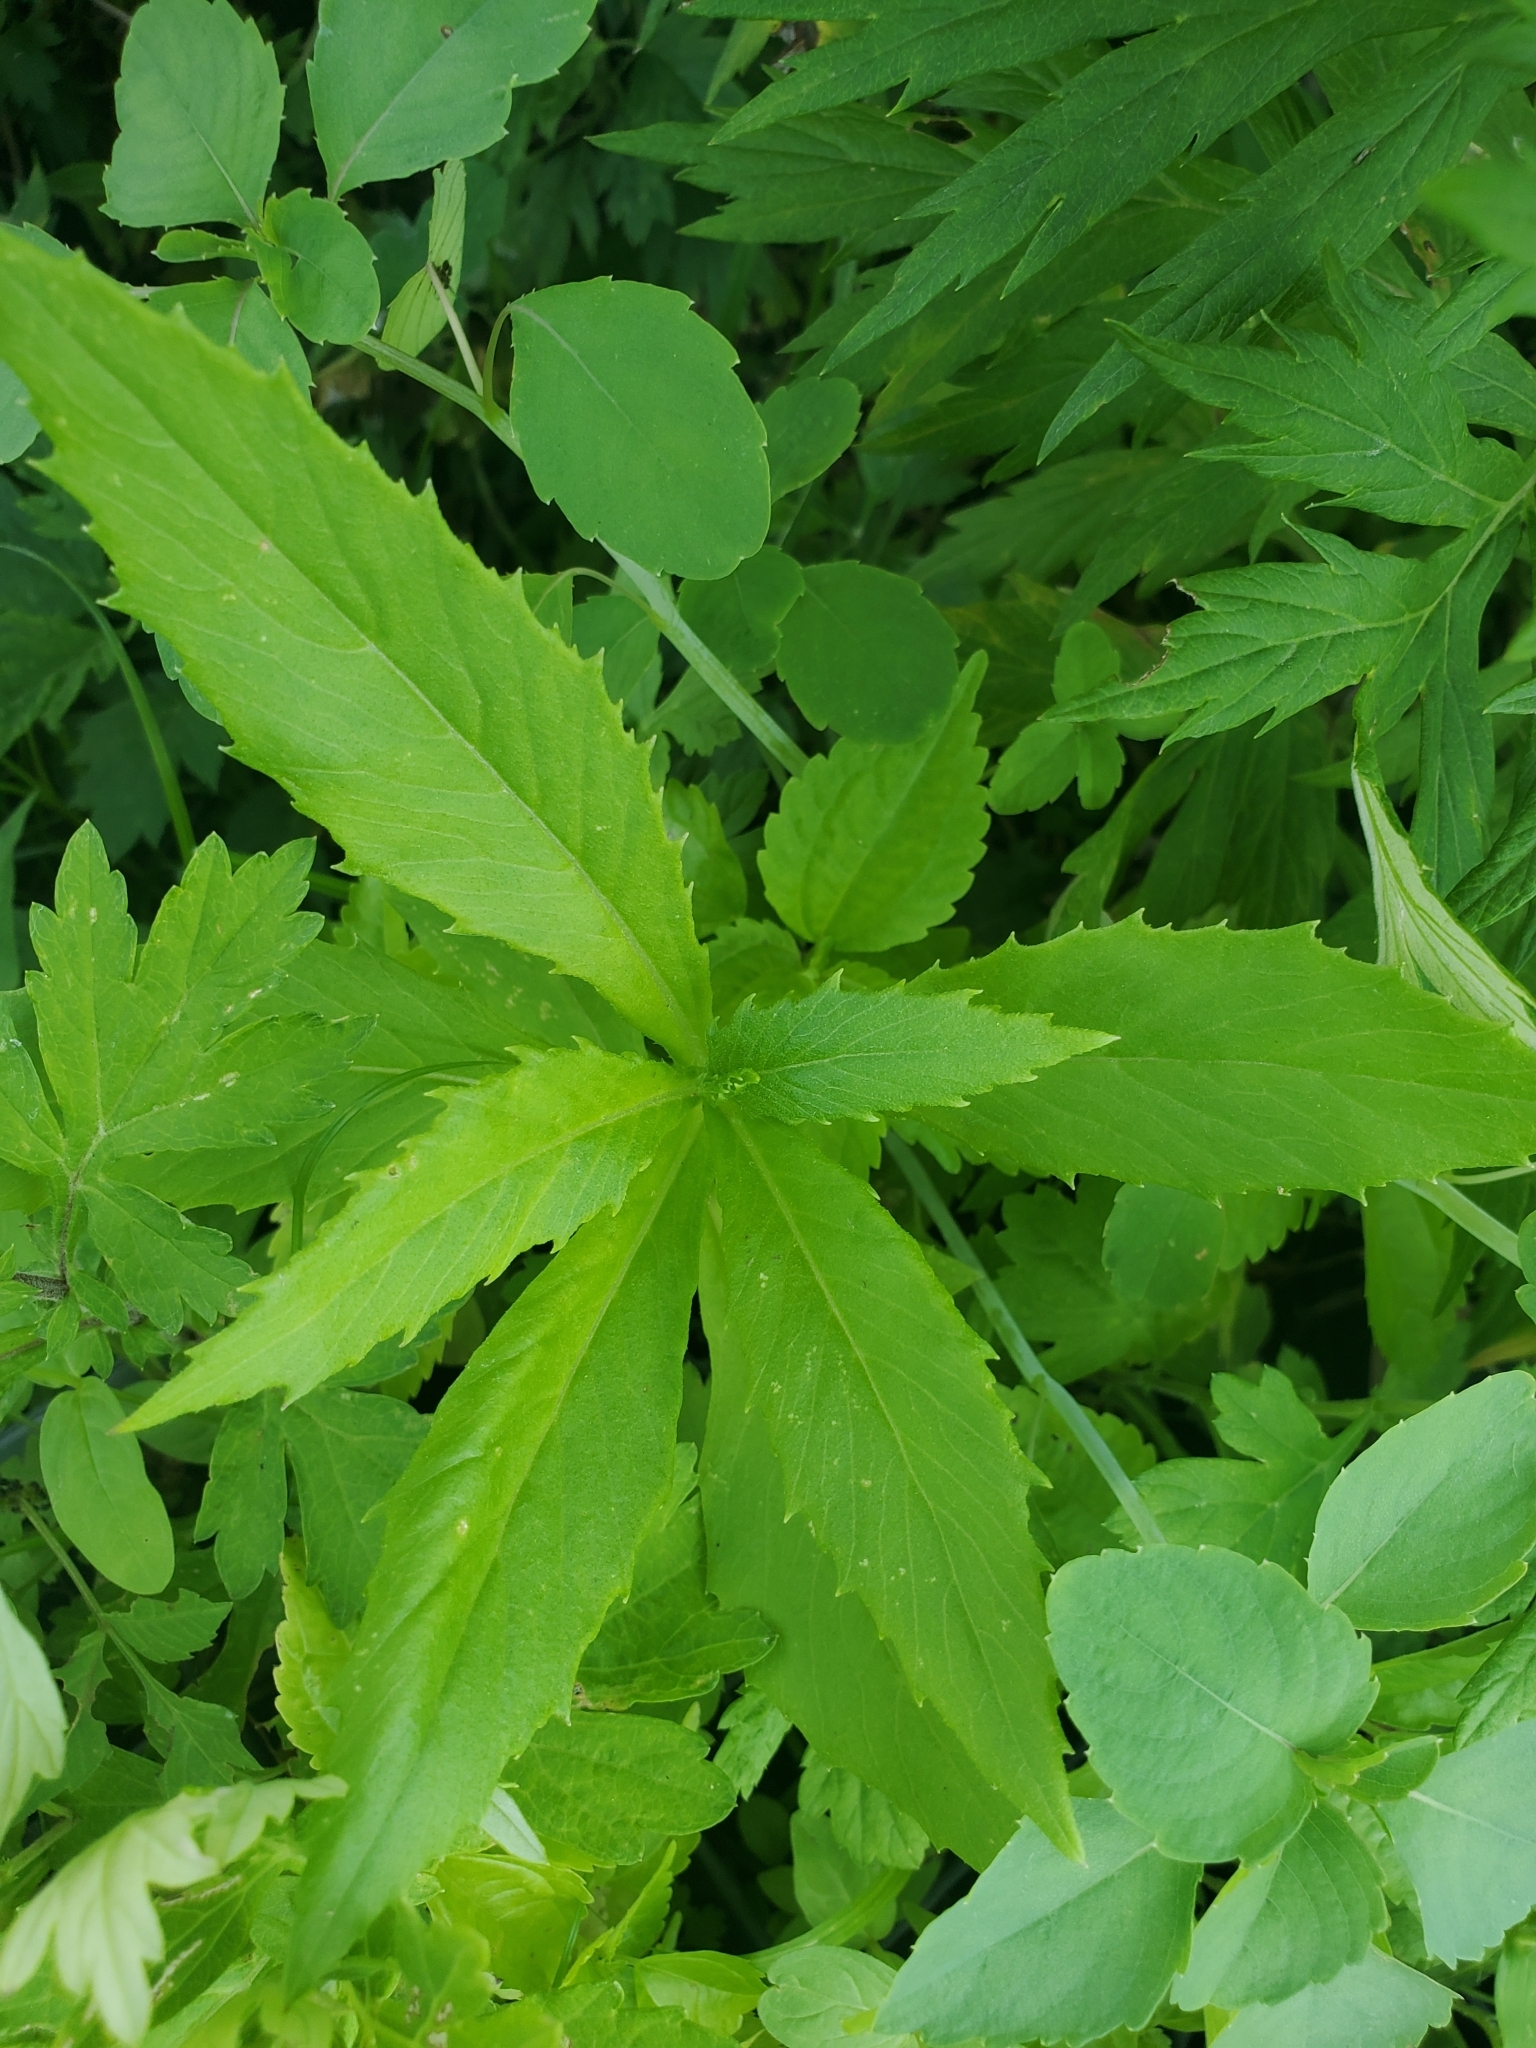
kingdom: Plantae
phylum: Tracheophyta
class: Magnoliopsida
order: Asterales
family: Asteraceae
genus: Erechtites
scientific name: Erechtites hieraciifolius
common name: American burnweed
